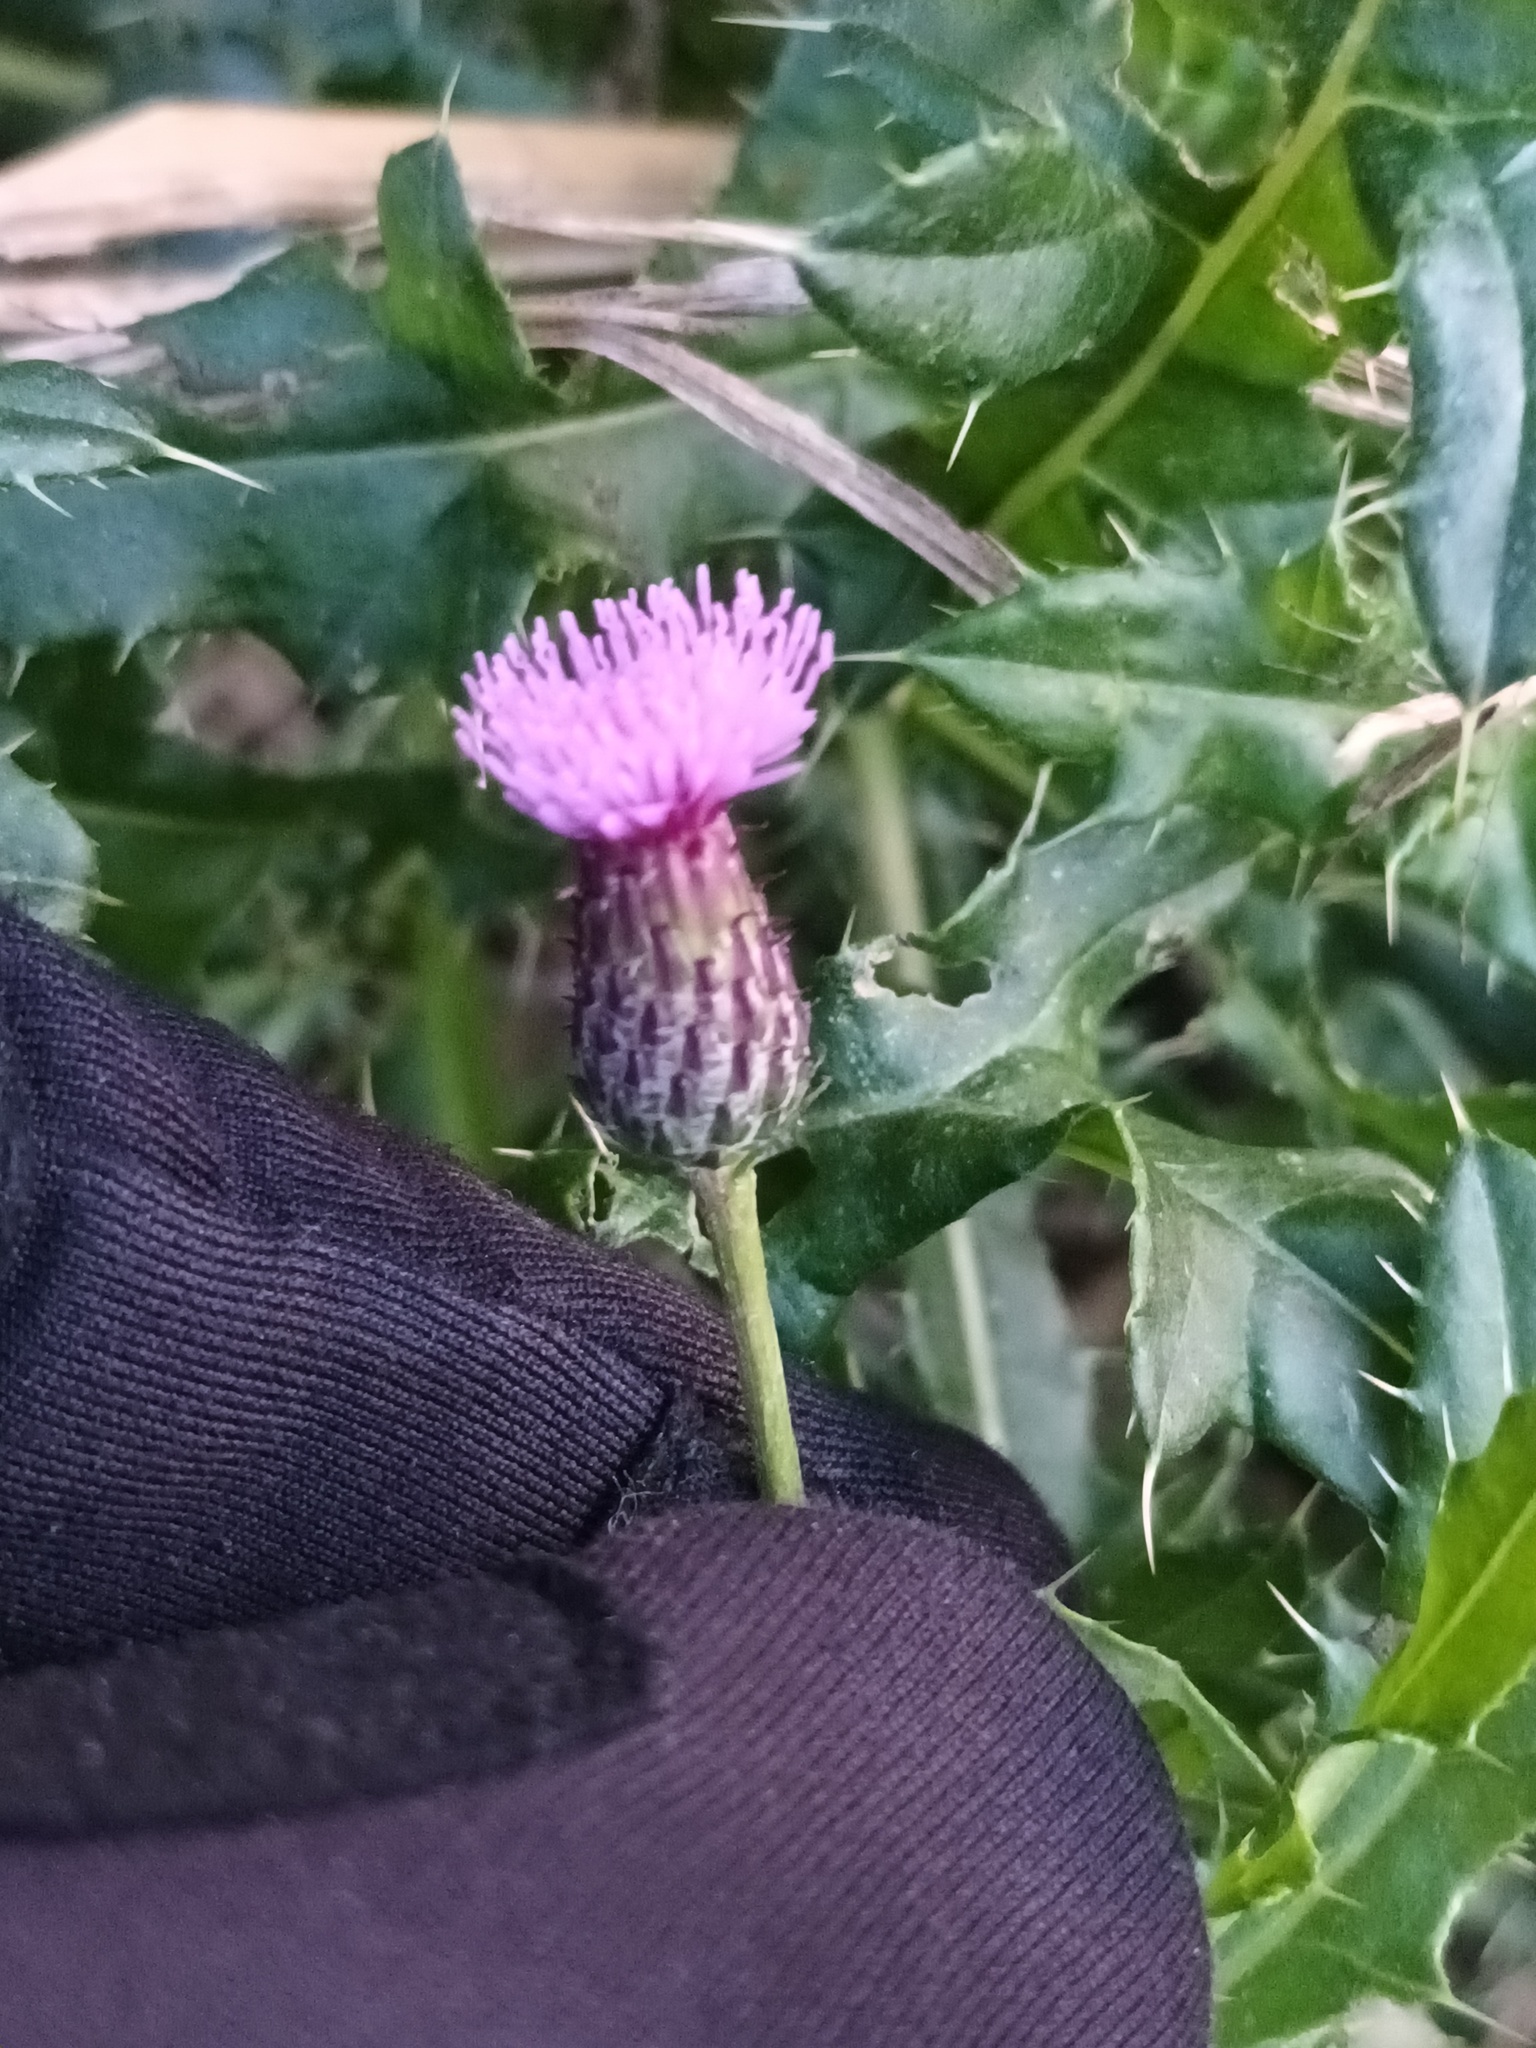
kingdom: Plantae
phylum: Tracheophyta
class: Magnoliopsida
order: Asterales
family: Asteraceae
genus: Cirsium
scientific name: Cirsium arvense
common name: Creeping thistle
